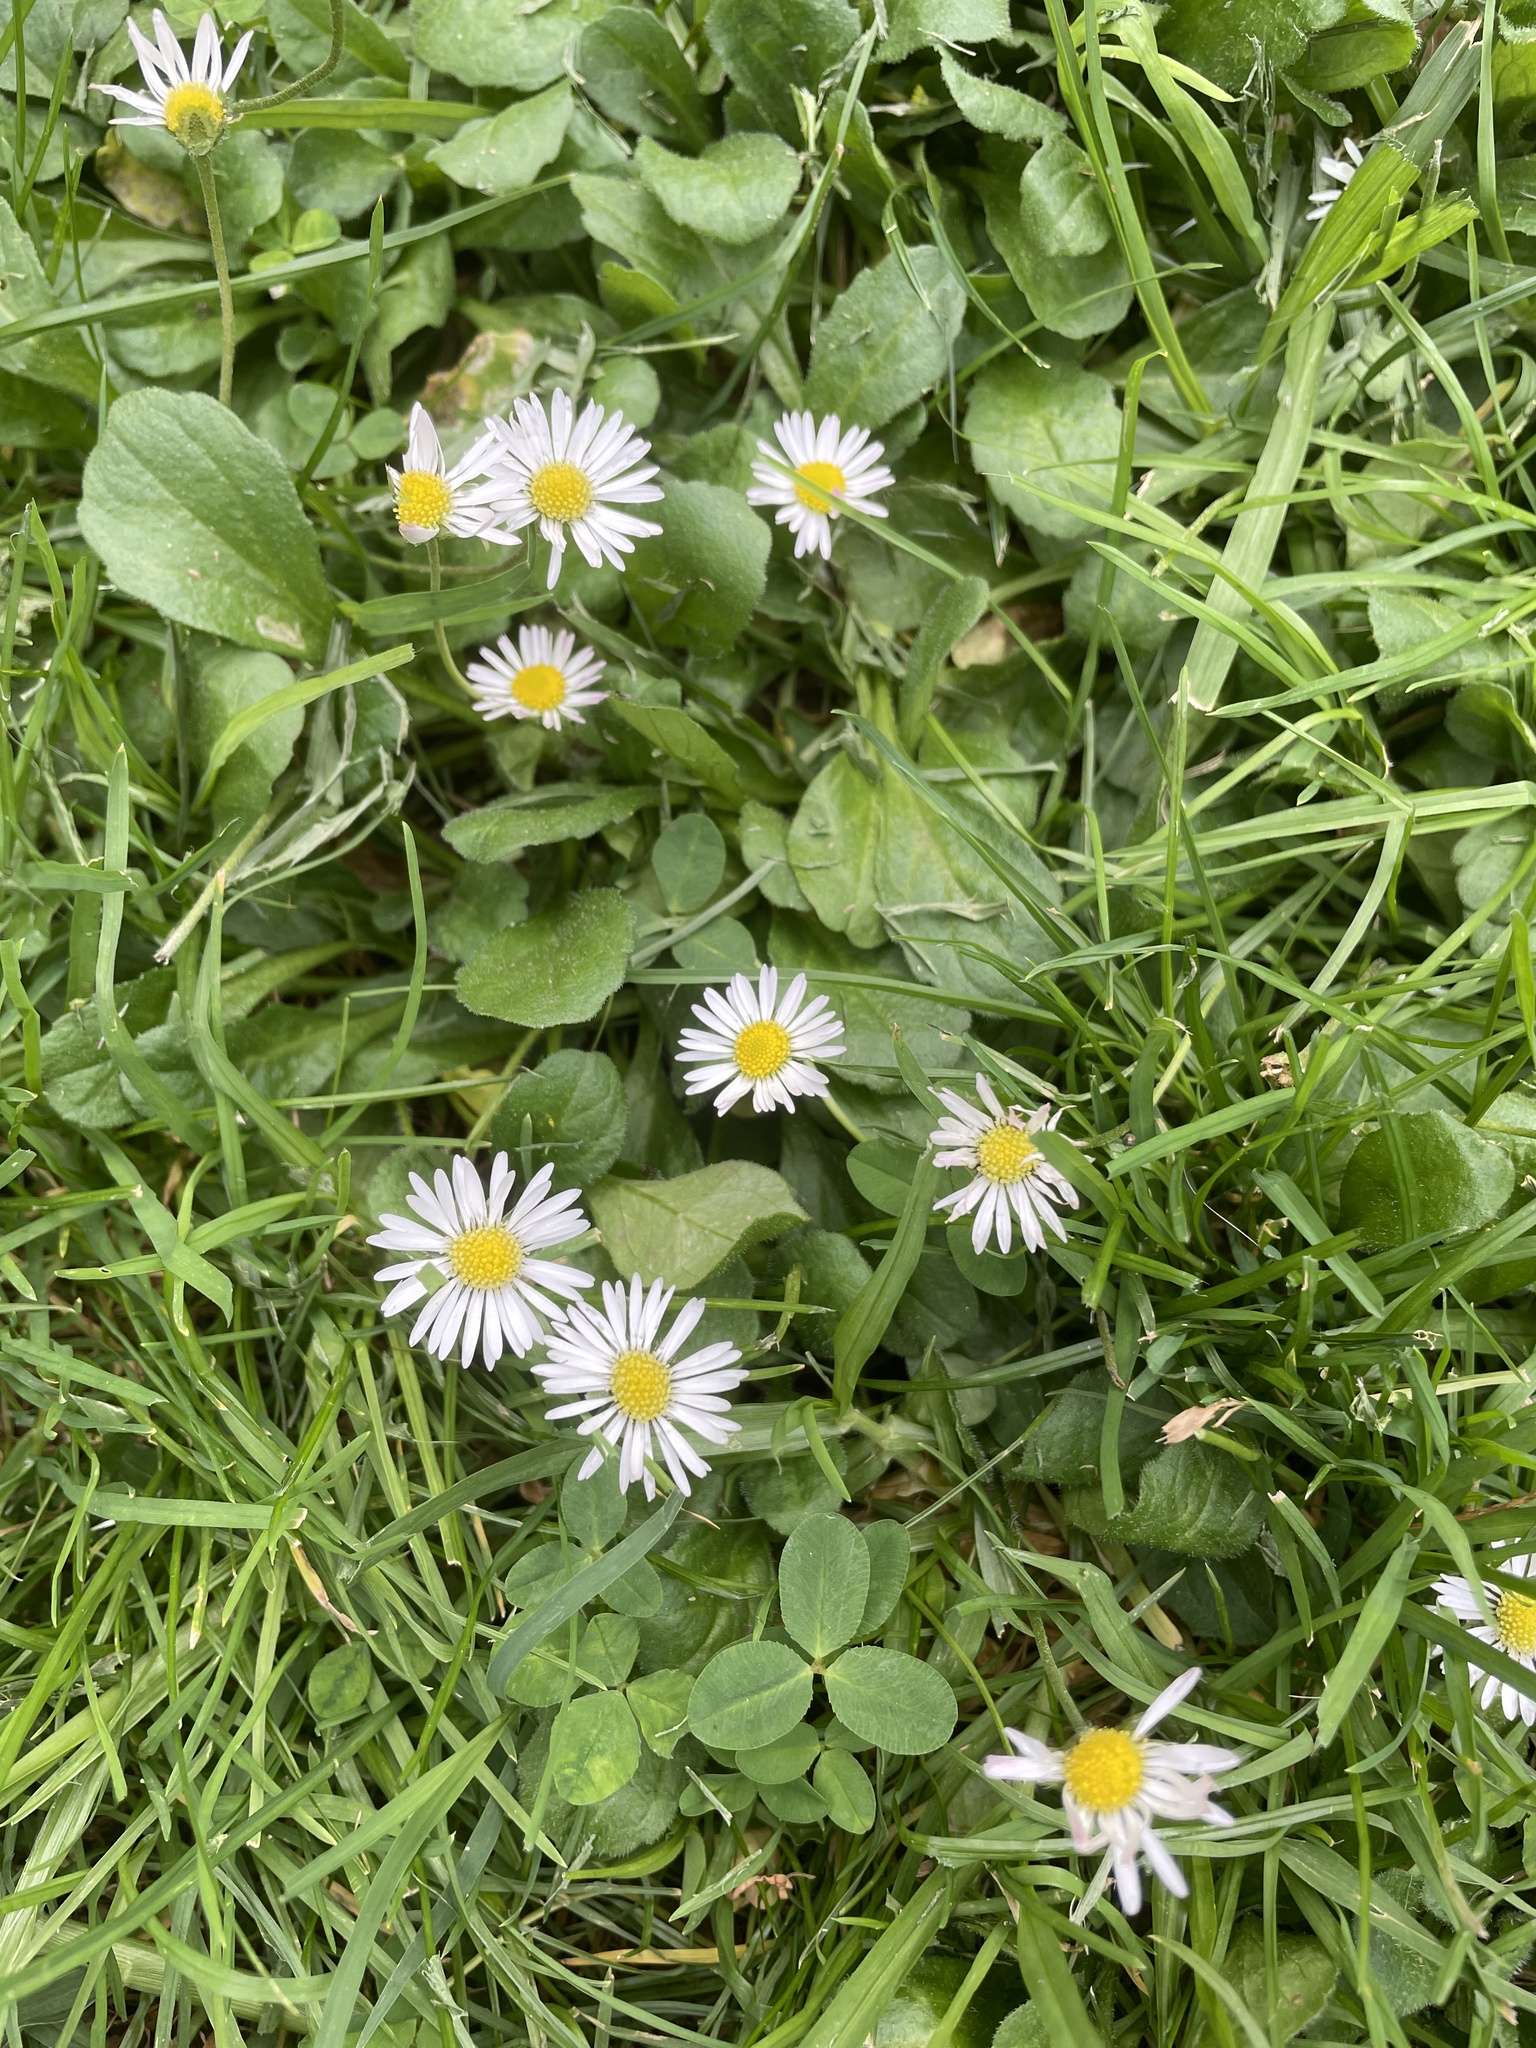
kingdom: Plantae
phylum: Tracheophyta
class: Magnoliopsida
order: Asterales
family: Asteraceae
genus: Bellis
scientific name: Bellis perennis
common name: Lawndaisy
